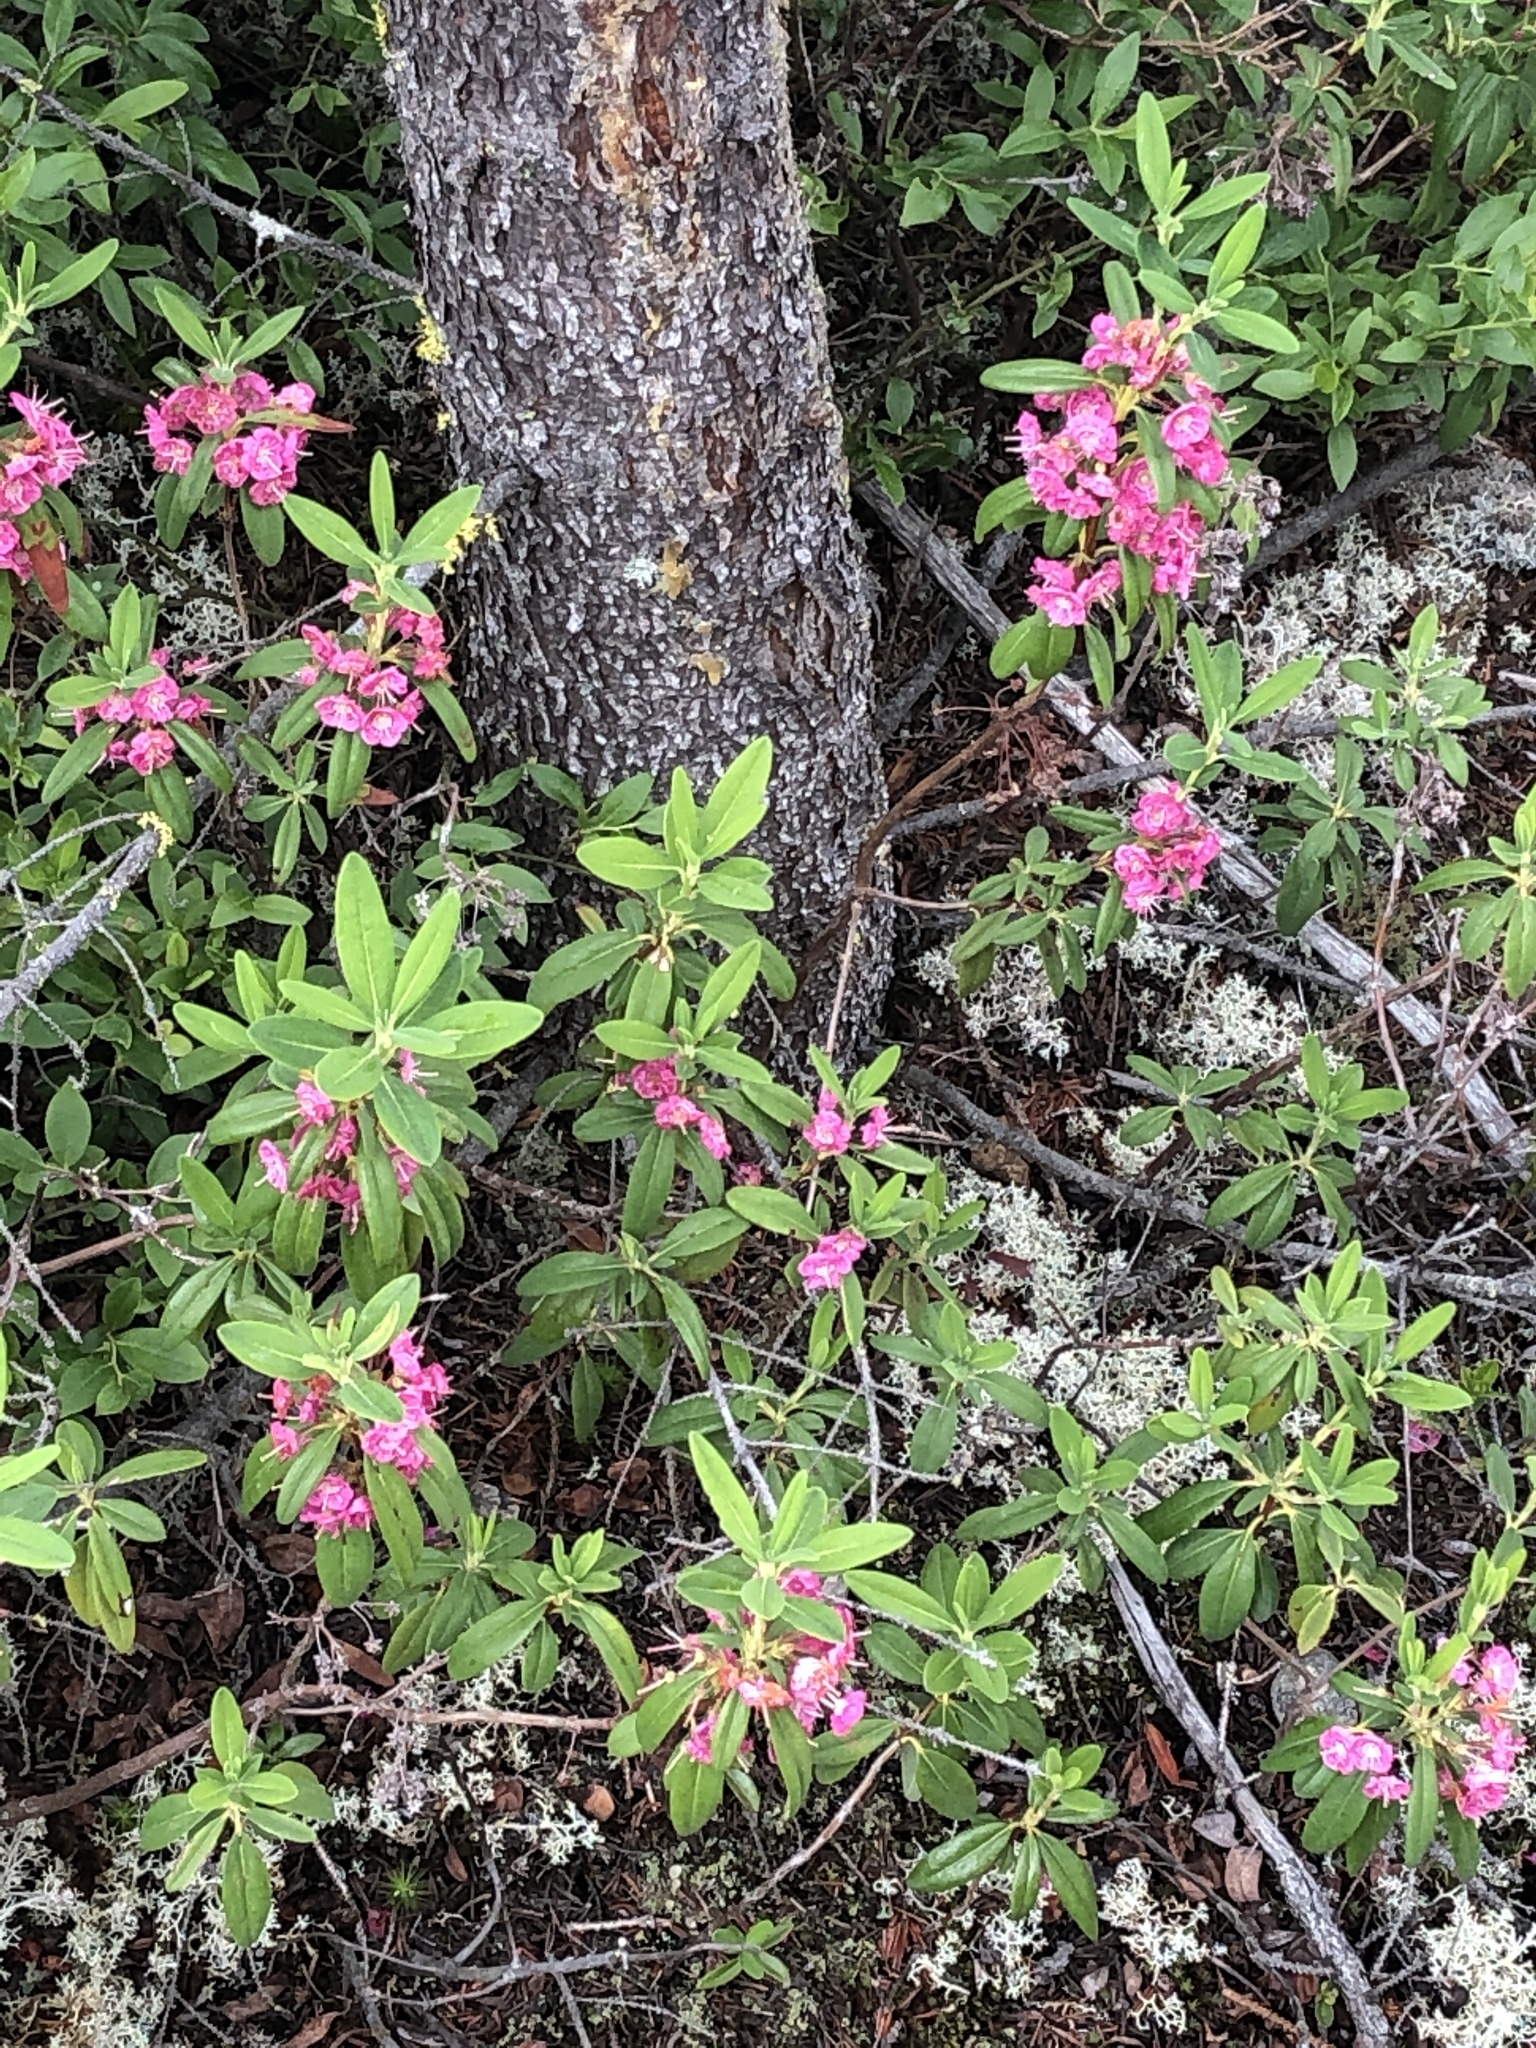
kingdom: Plantae
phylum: Tracheophyta
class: Magnoliopsida
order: Ericales
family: Ericaceae
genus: Kalmia
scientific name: Kalmia angustifolia
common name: Sheep-laurel
